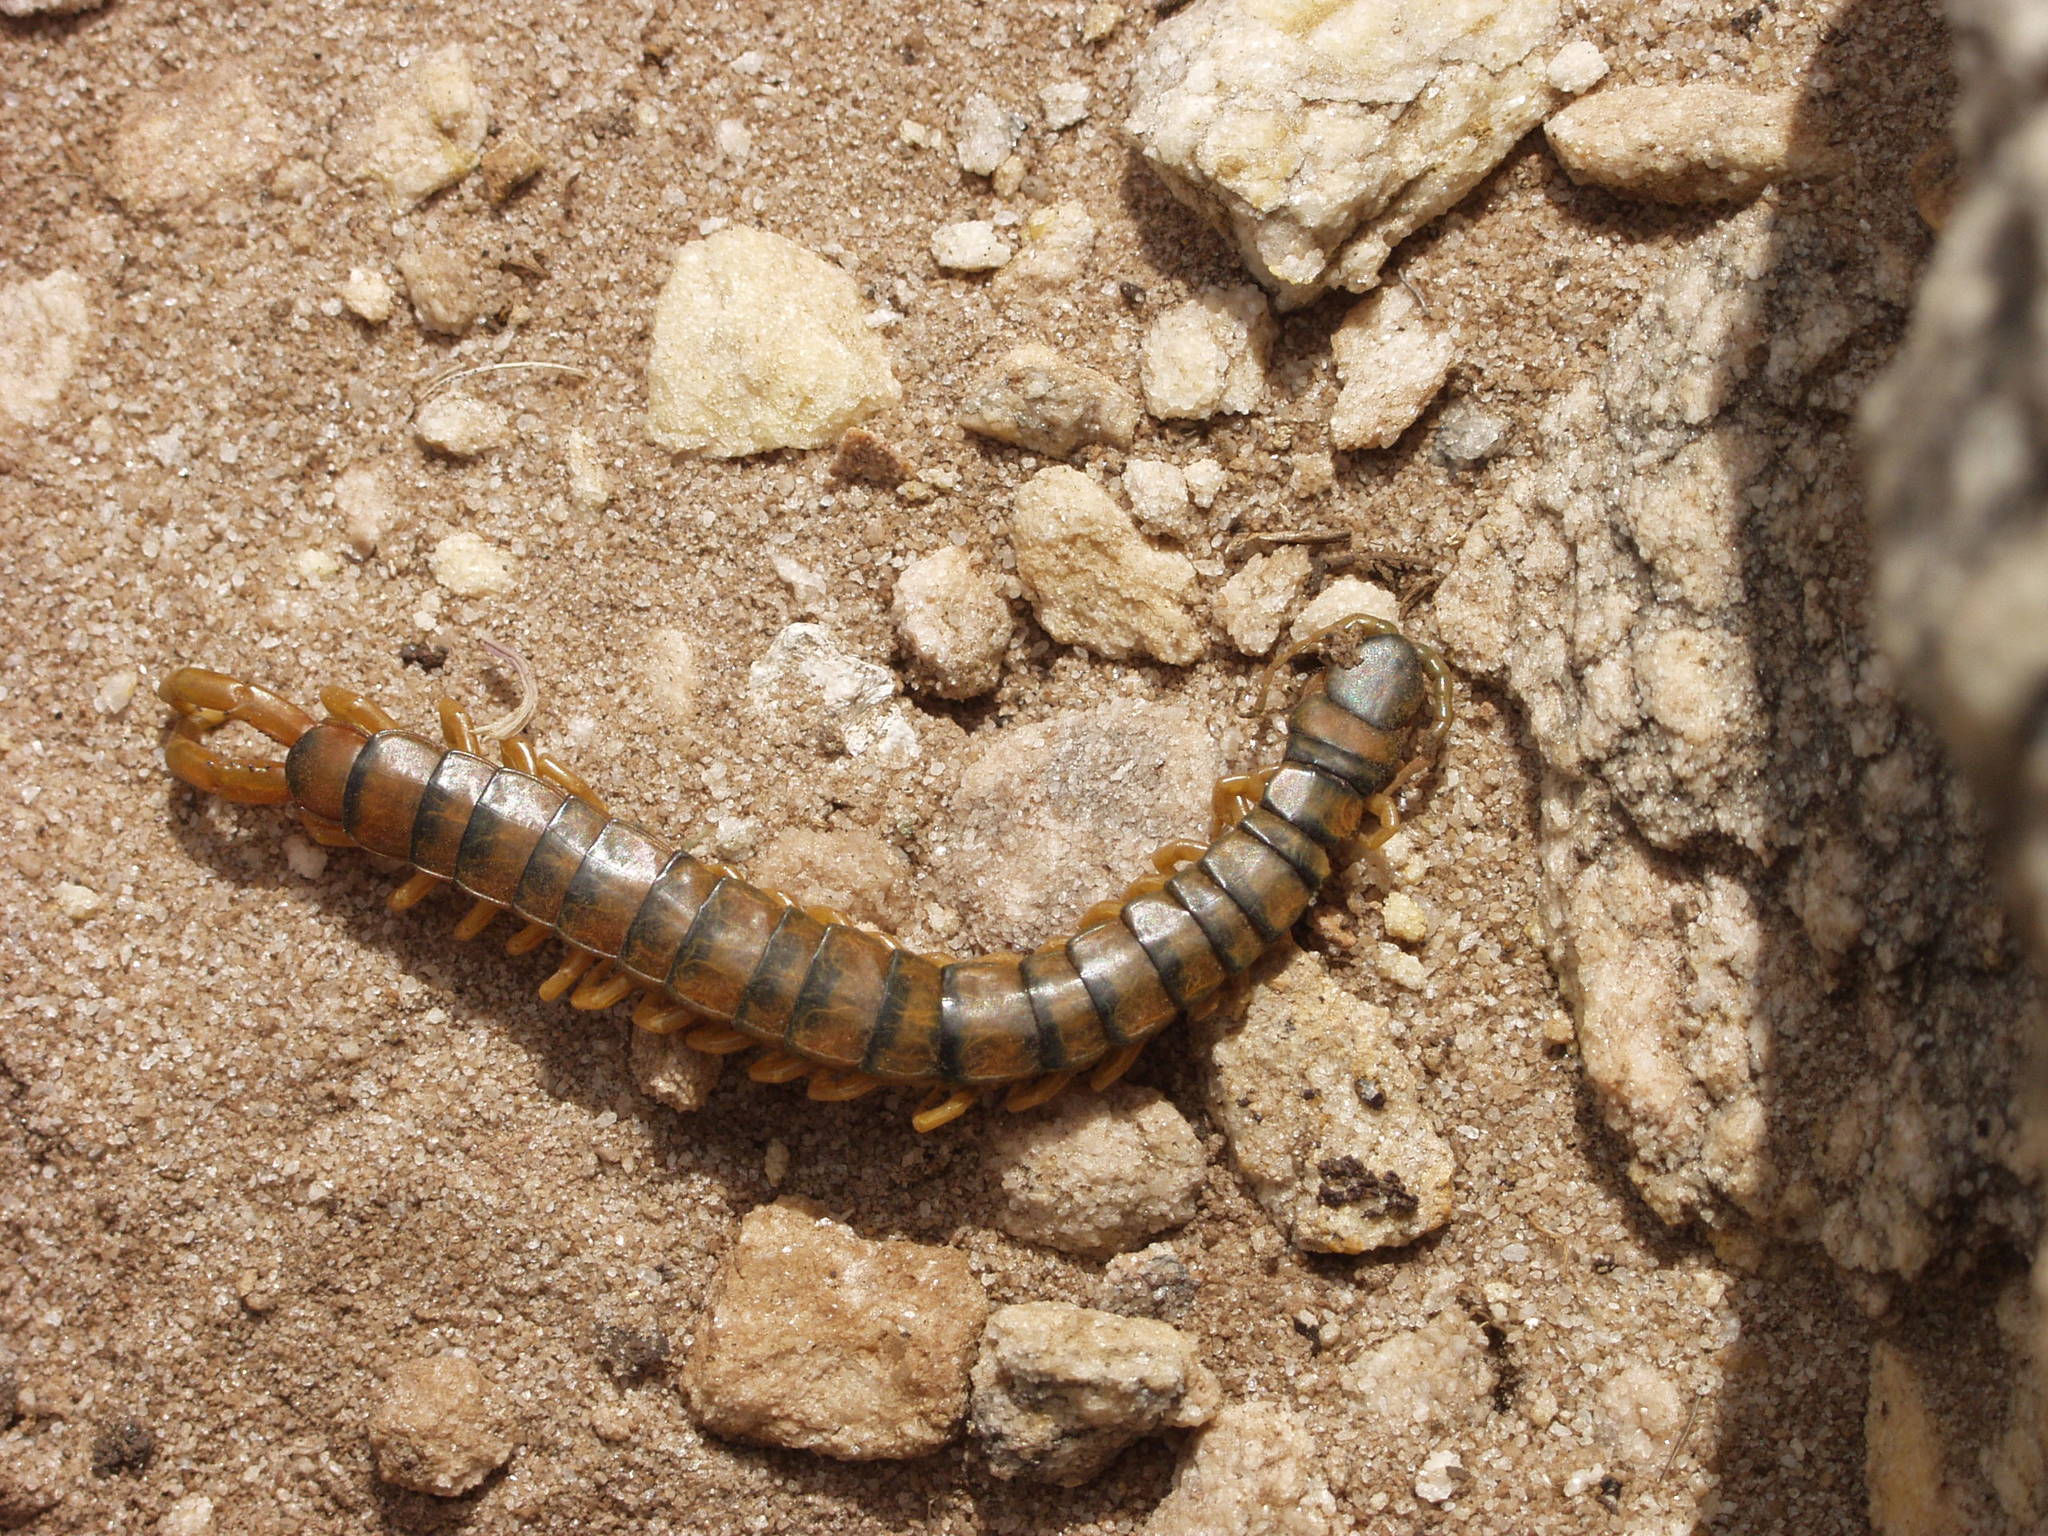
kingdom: Animalia
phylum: Arthropoda
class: Chilopoda
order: Scolopendromorpha
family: Scolopendridae
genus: Scolopendra
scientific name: Scolopendra cingulata
